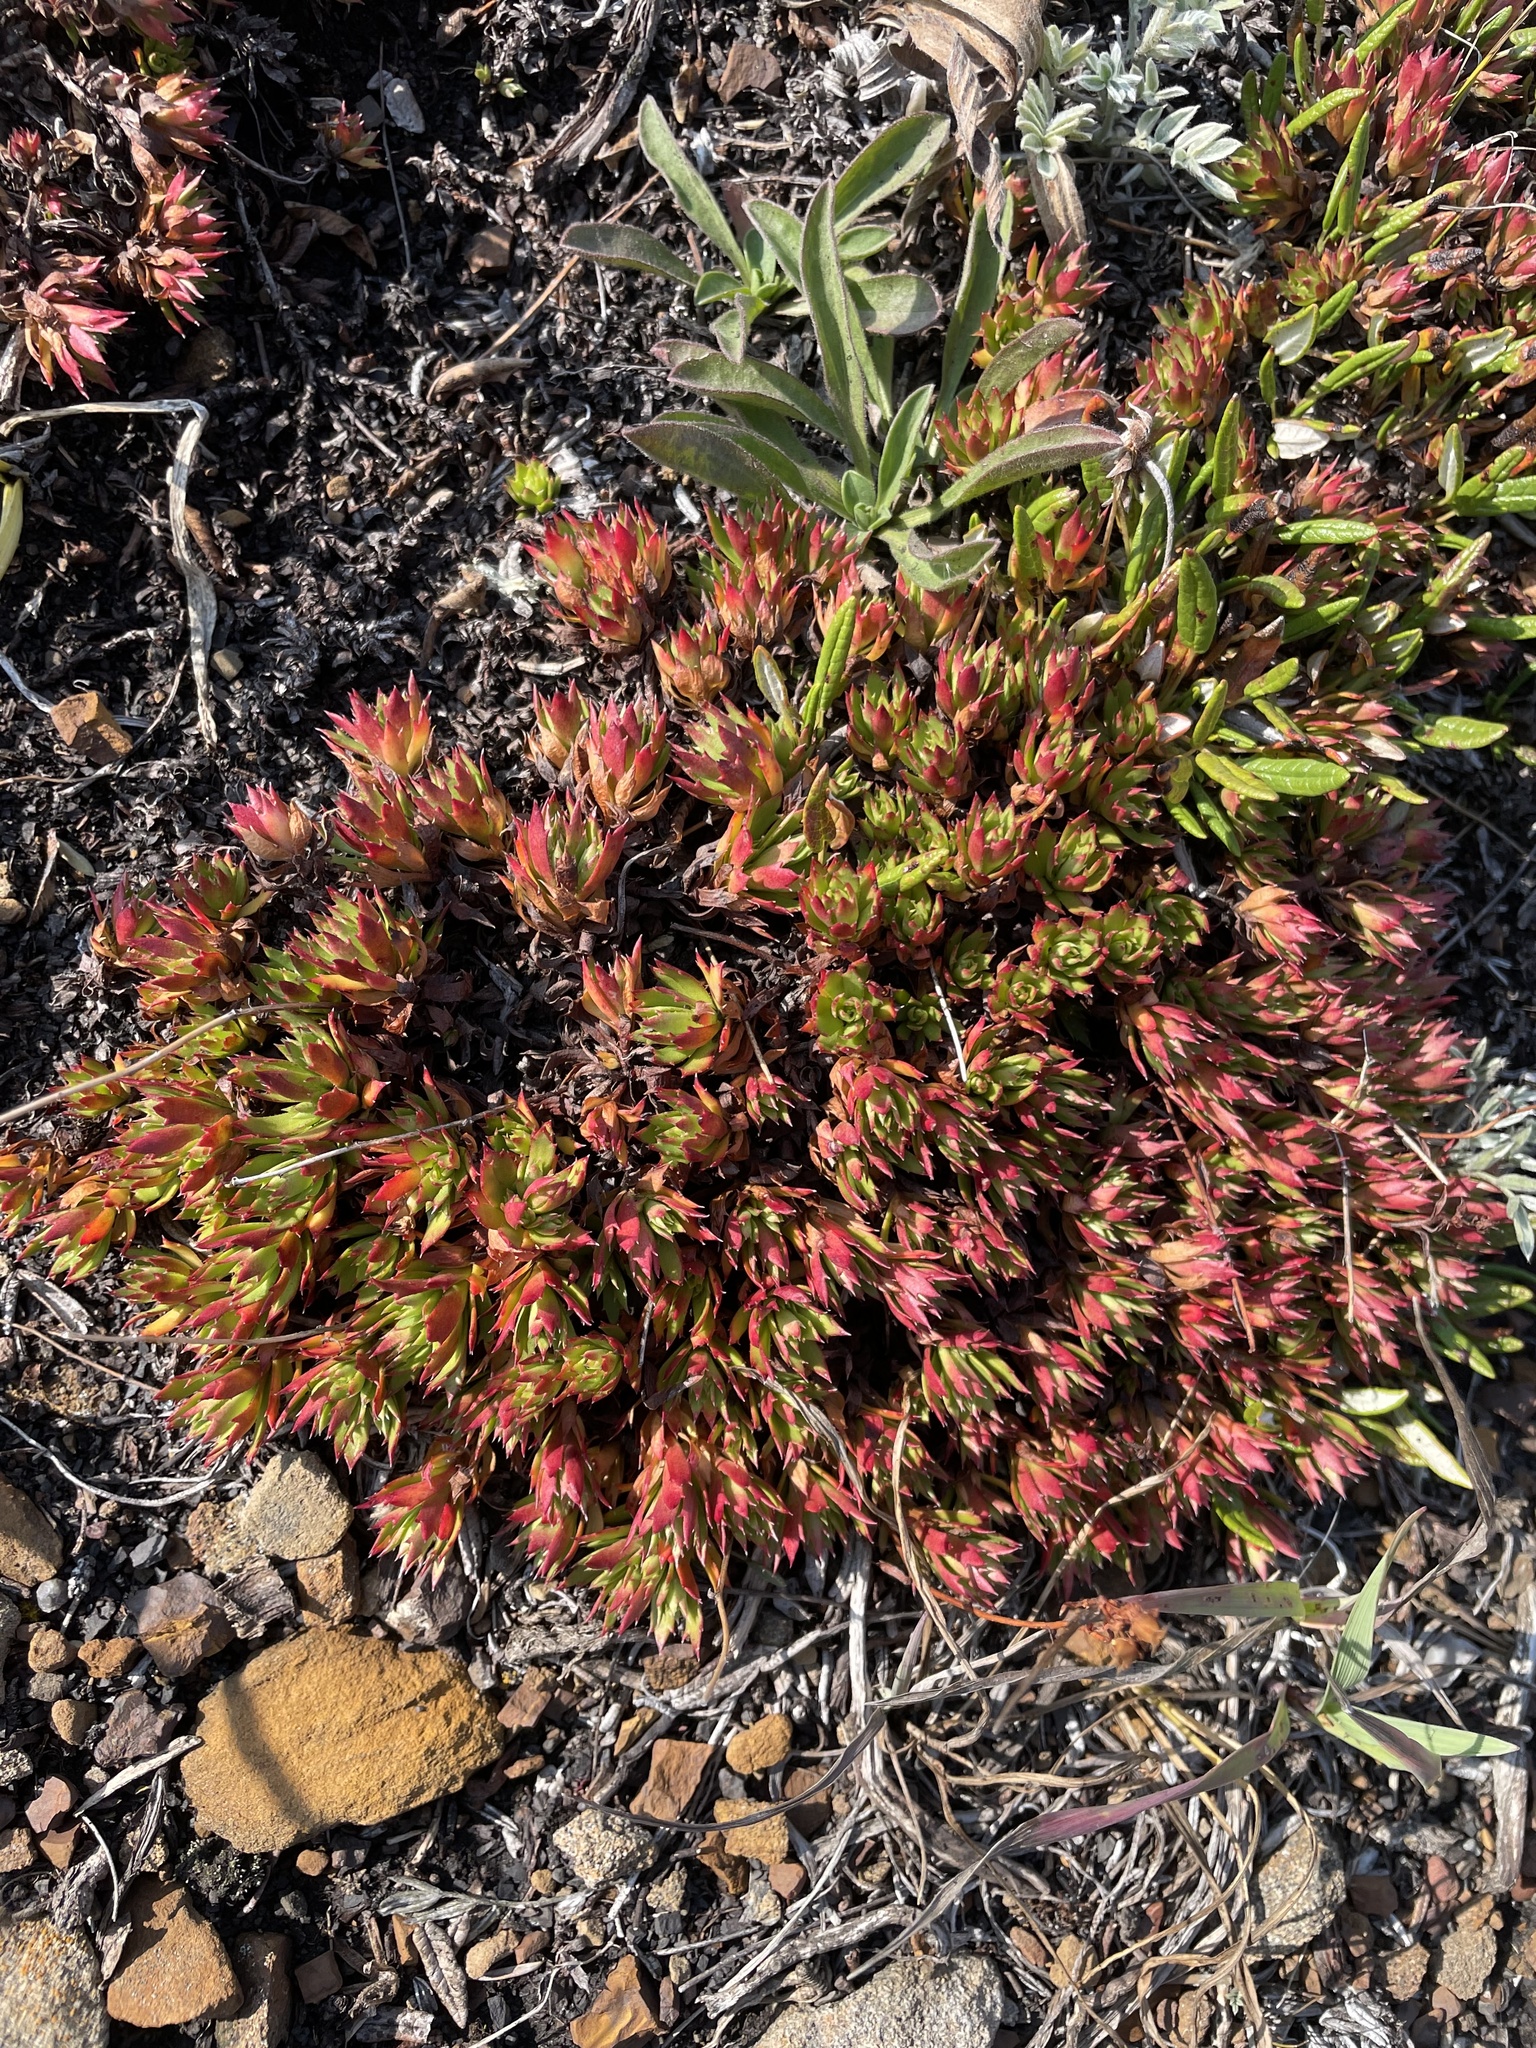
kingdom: Plantae
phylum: Tracheophyta
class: Magnoliopsida
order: Saxifragales
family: Saxifragaceae
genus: Saxifraga
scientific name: Saxifraga tricuspidata
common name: Prickly saxifrage
